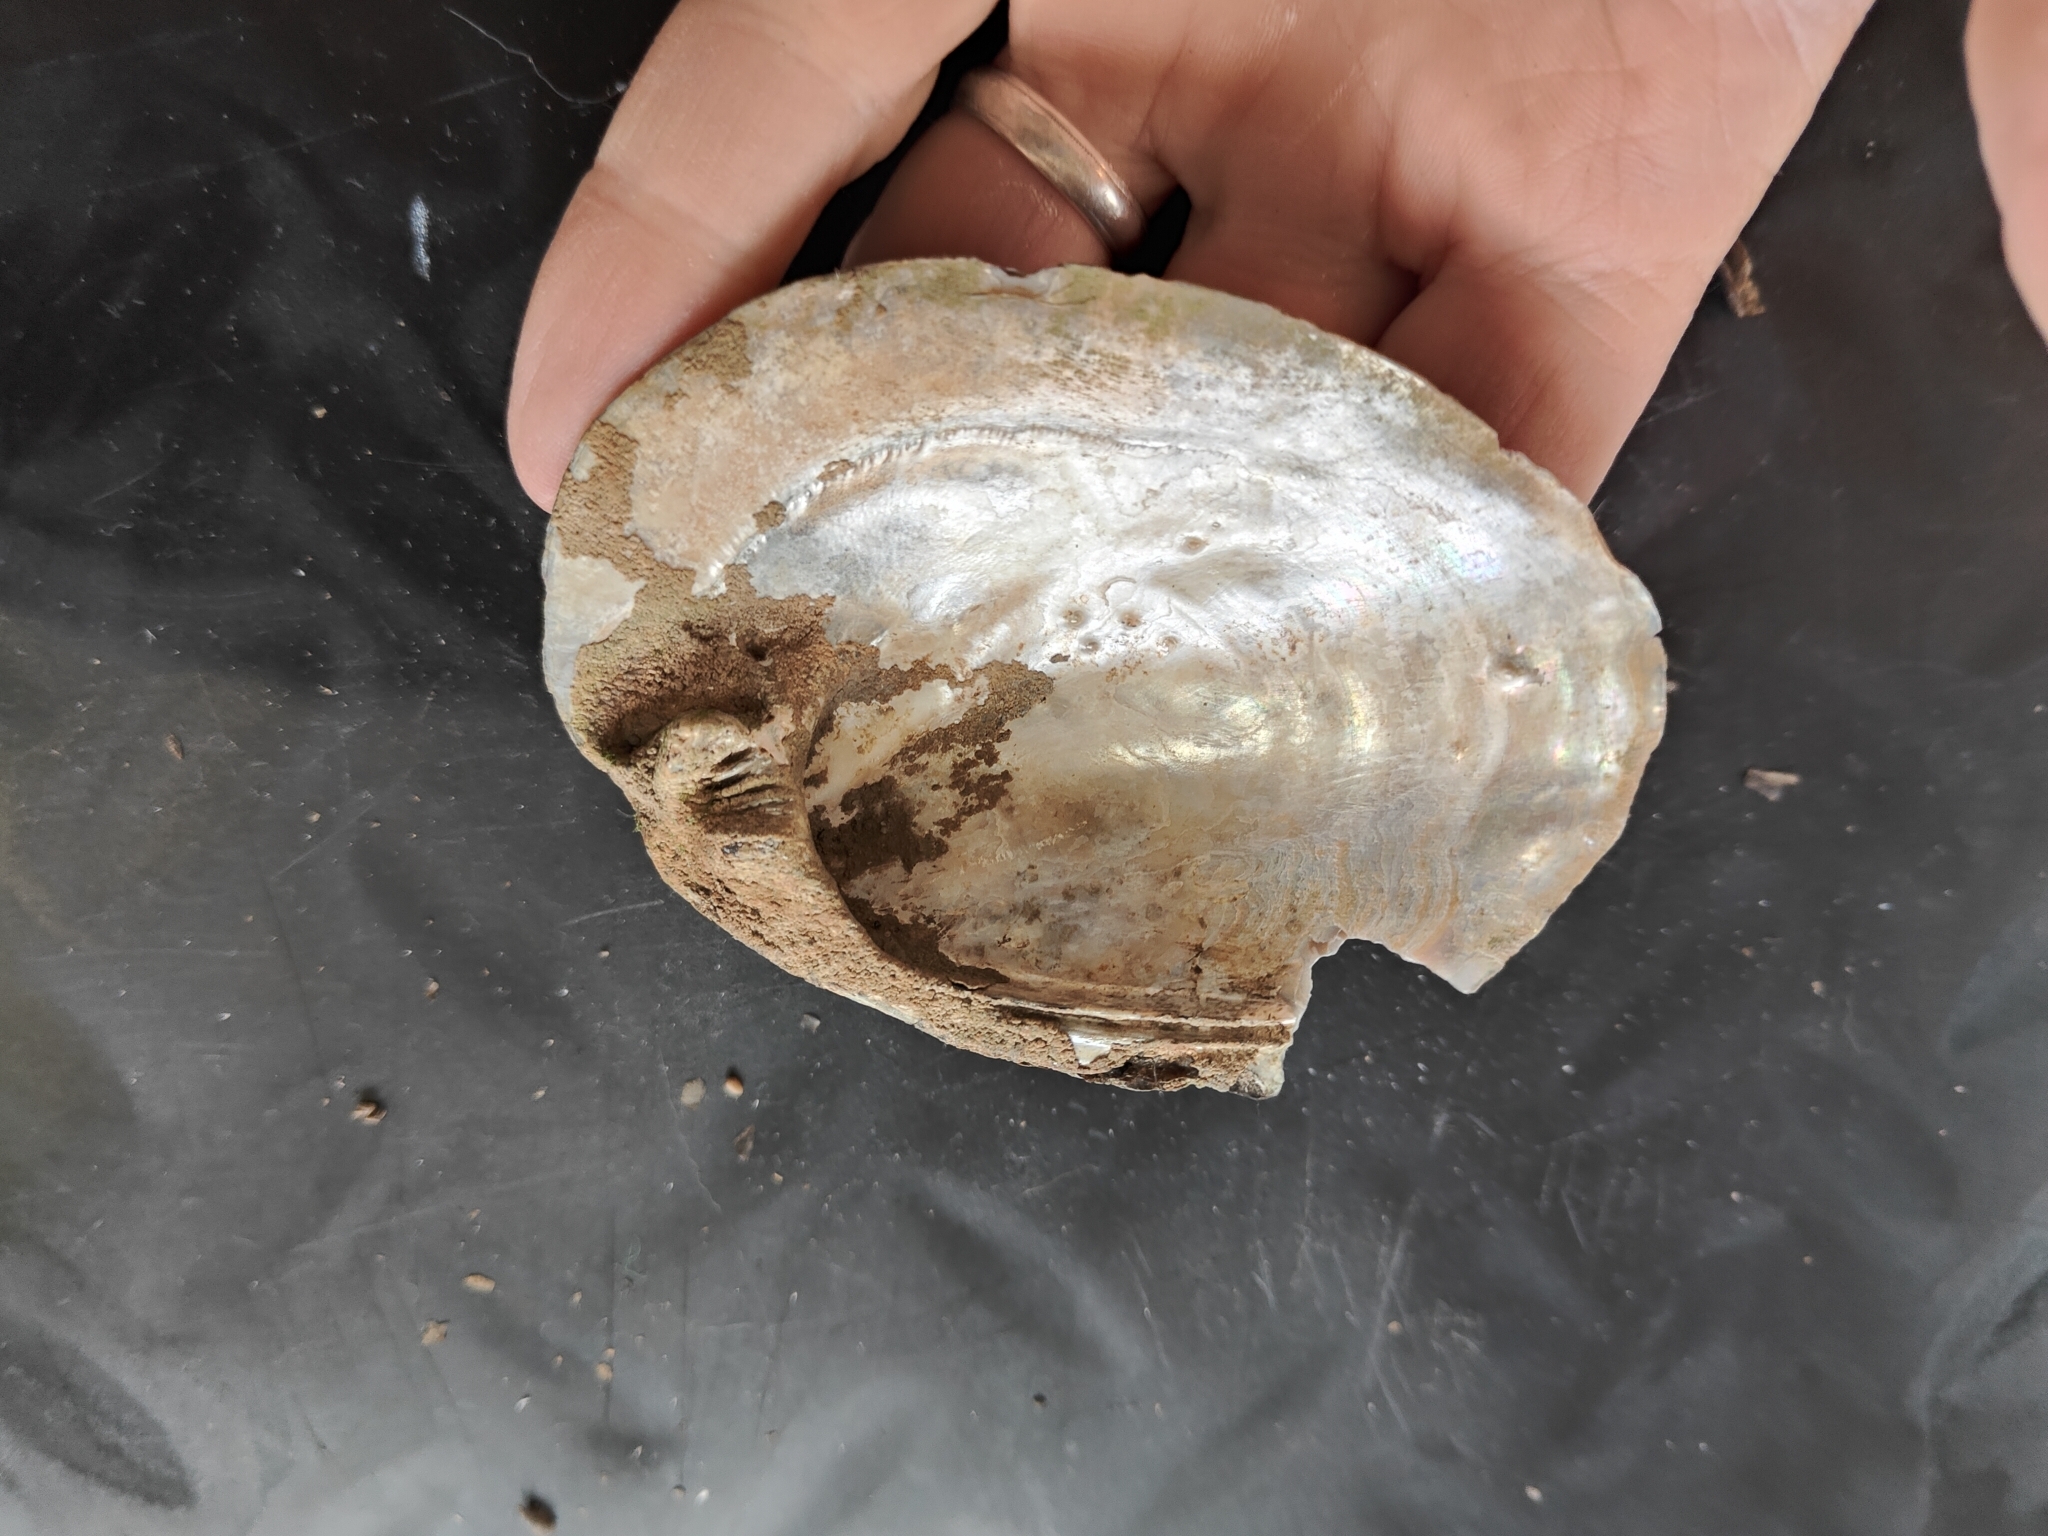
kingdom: Animalia
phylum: Mollusca
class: Bivalvia
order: Unionida
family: Unionidae
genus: Amblema
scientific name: Amblema plicata
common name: Threeridge
